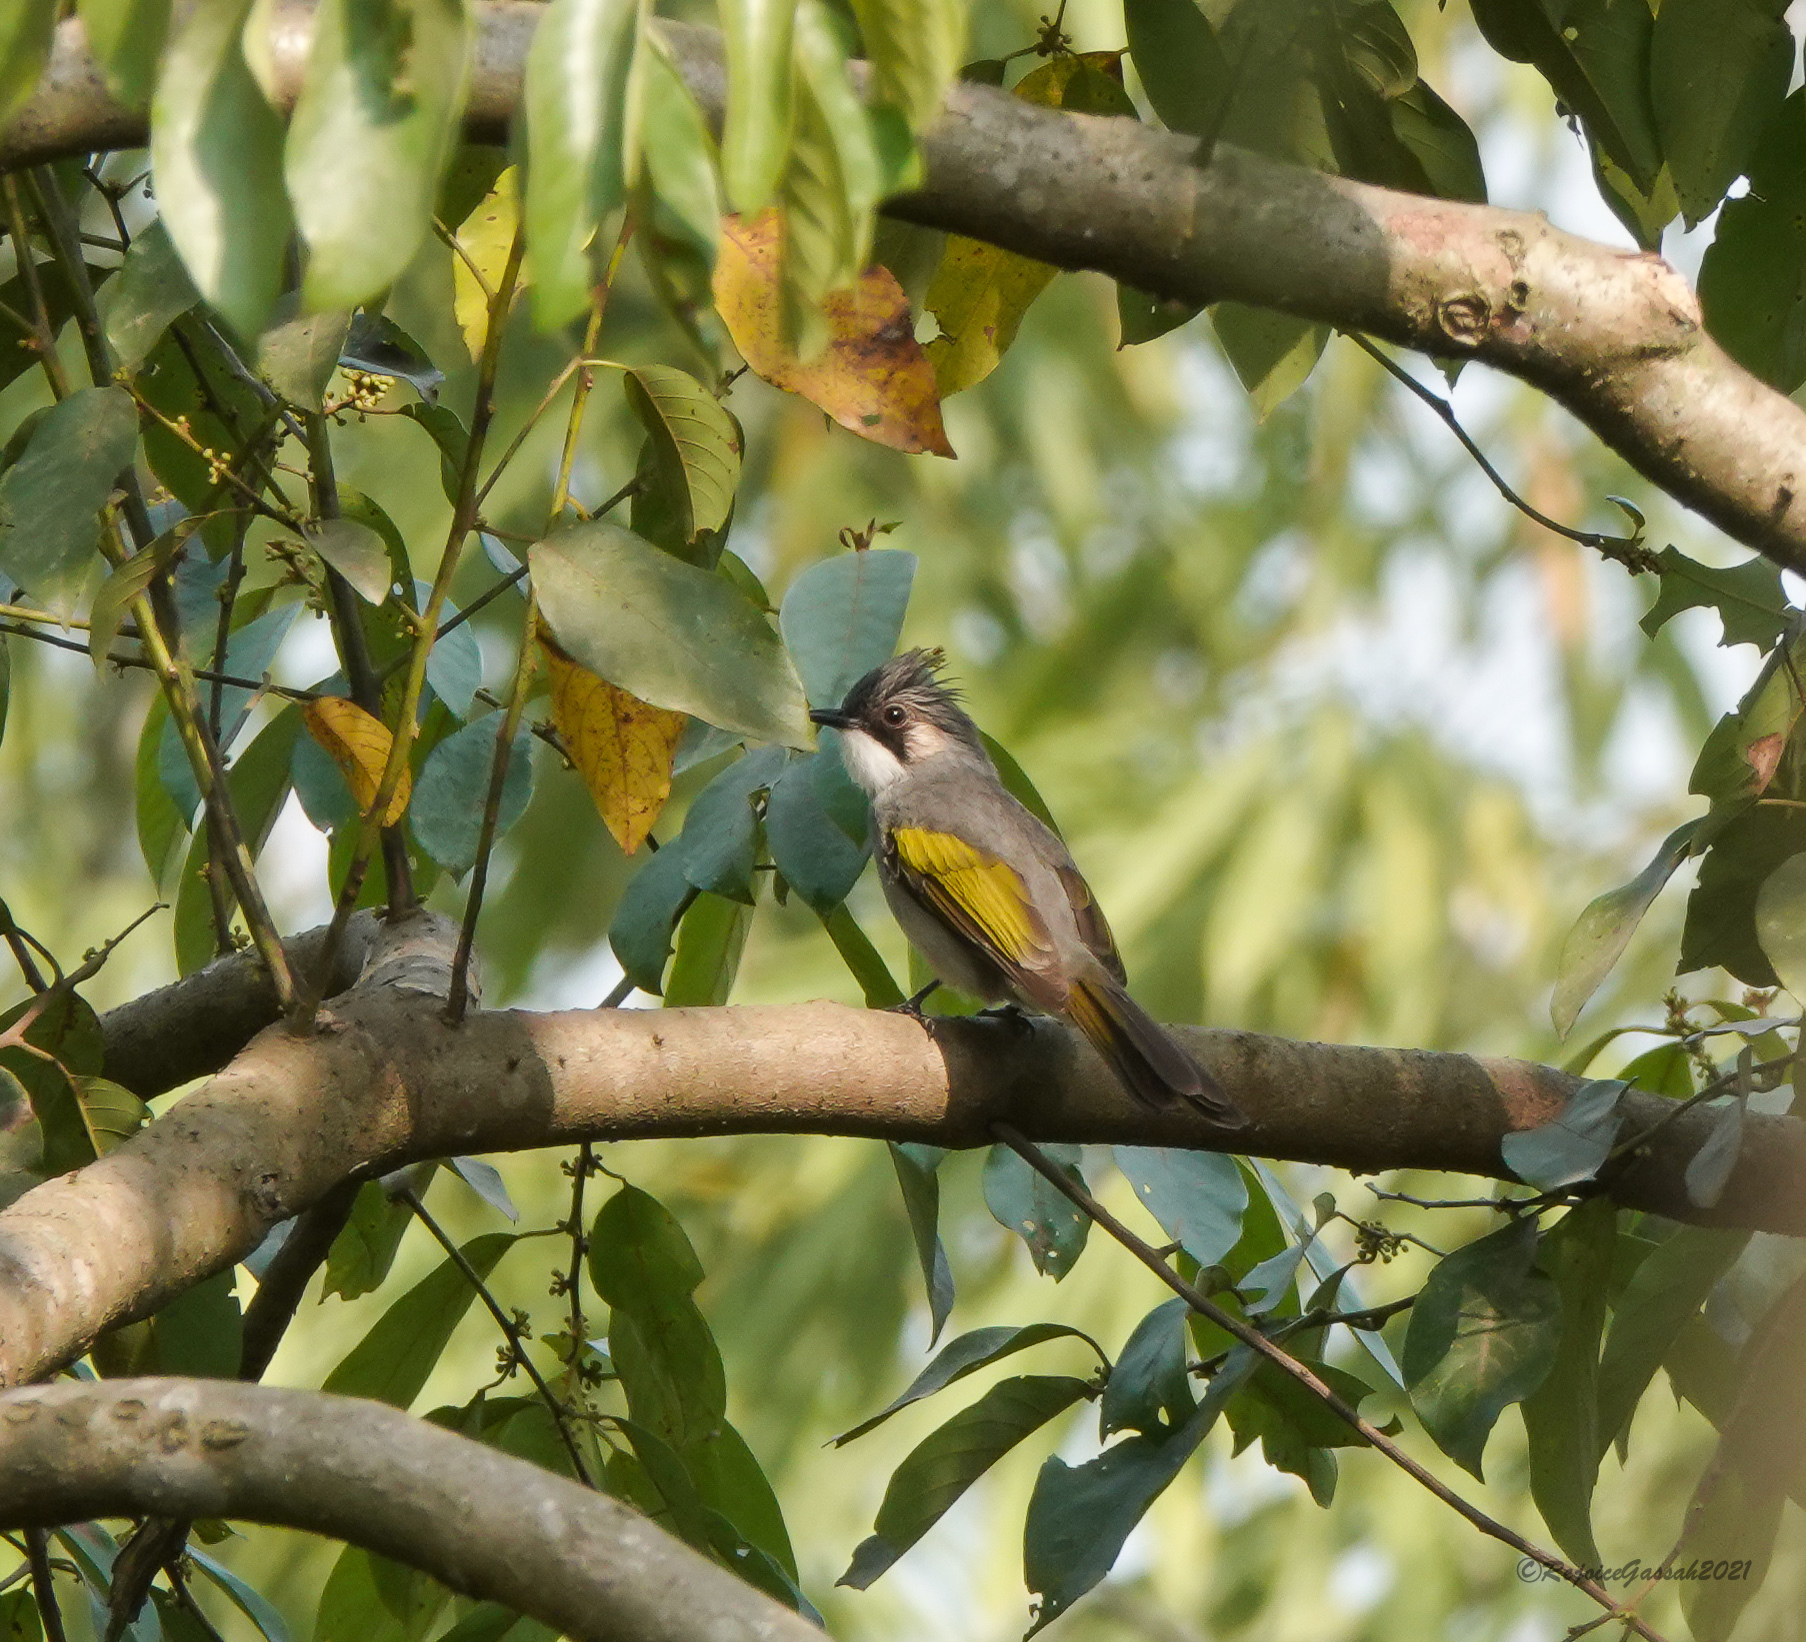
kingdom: Animalia
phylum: Chordata
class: Aves
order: Passeriformes
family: Pycnonotidae
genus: Hemixos
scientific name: Hemixos flavala
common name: Ashy bulbul
